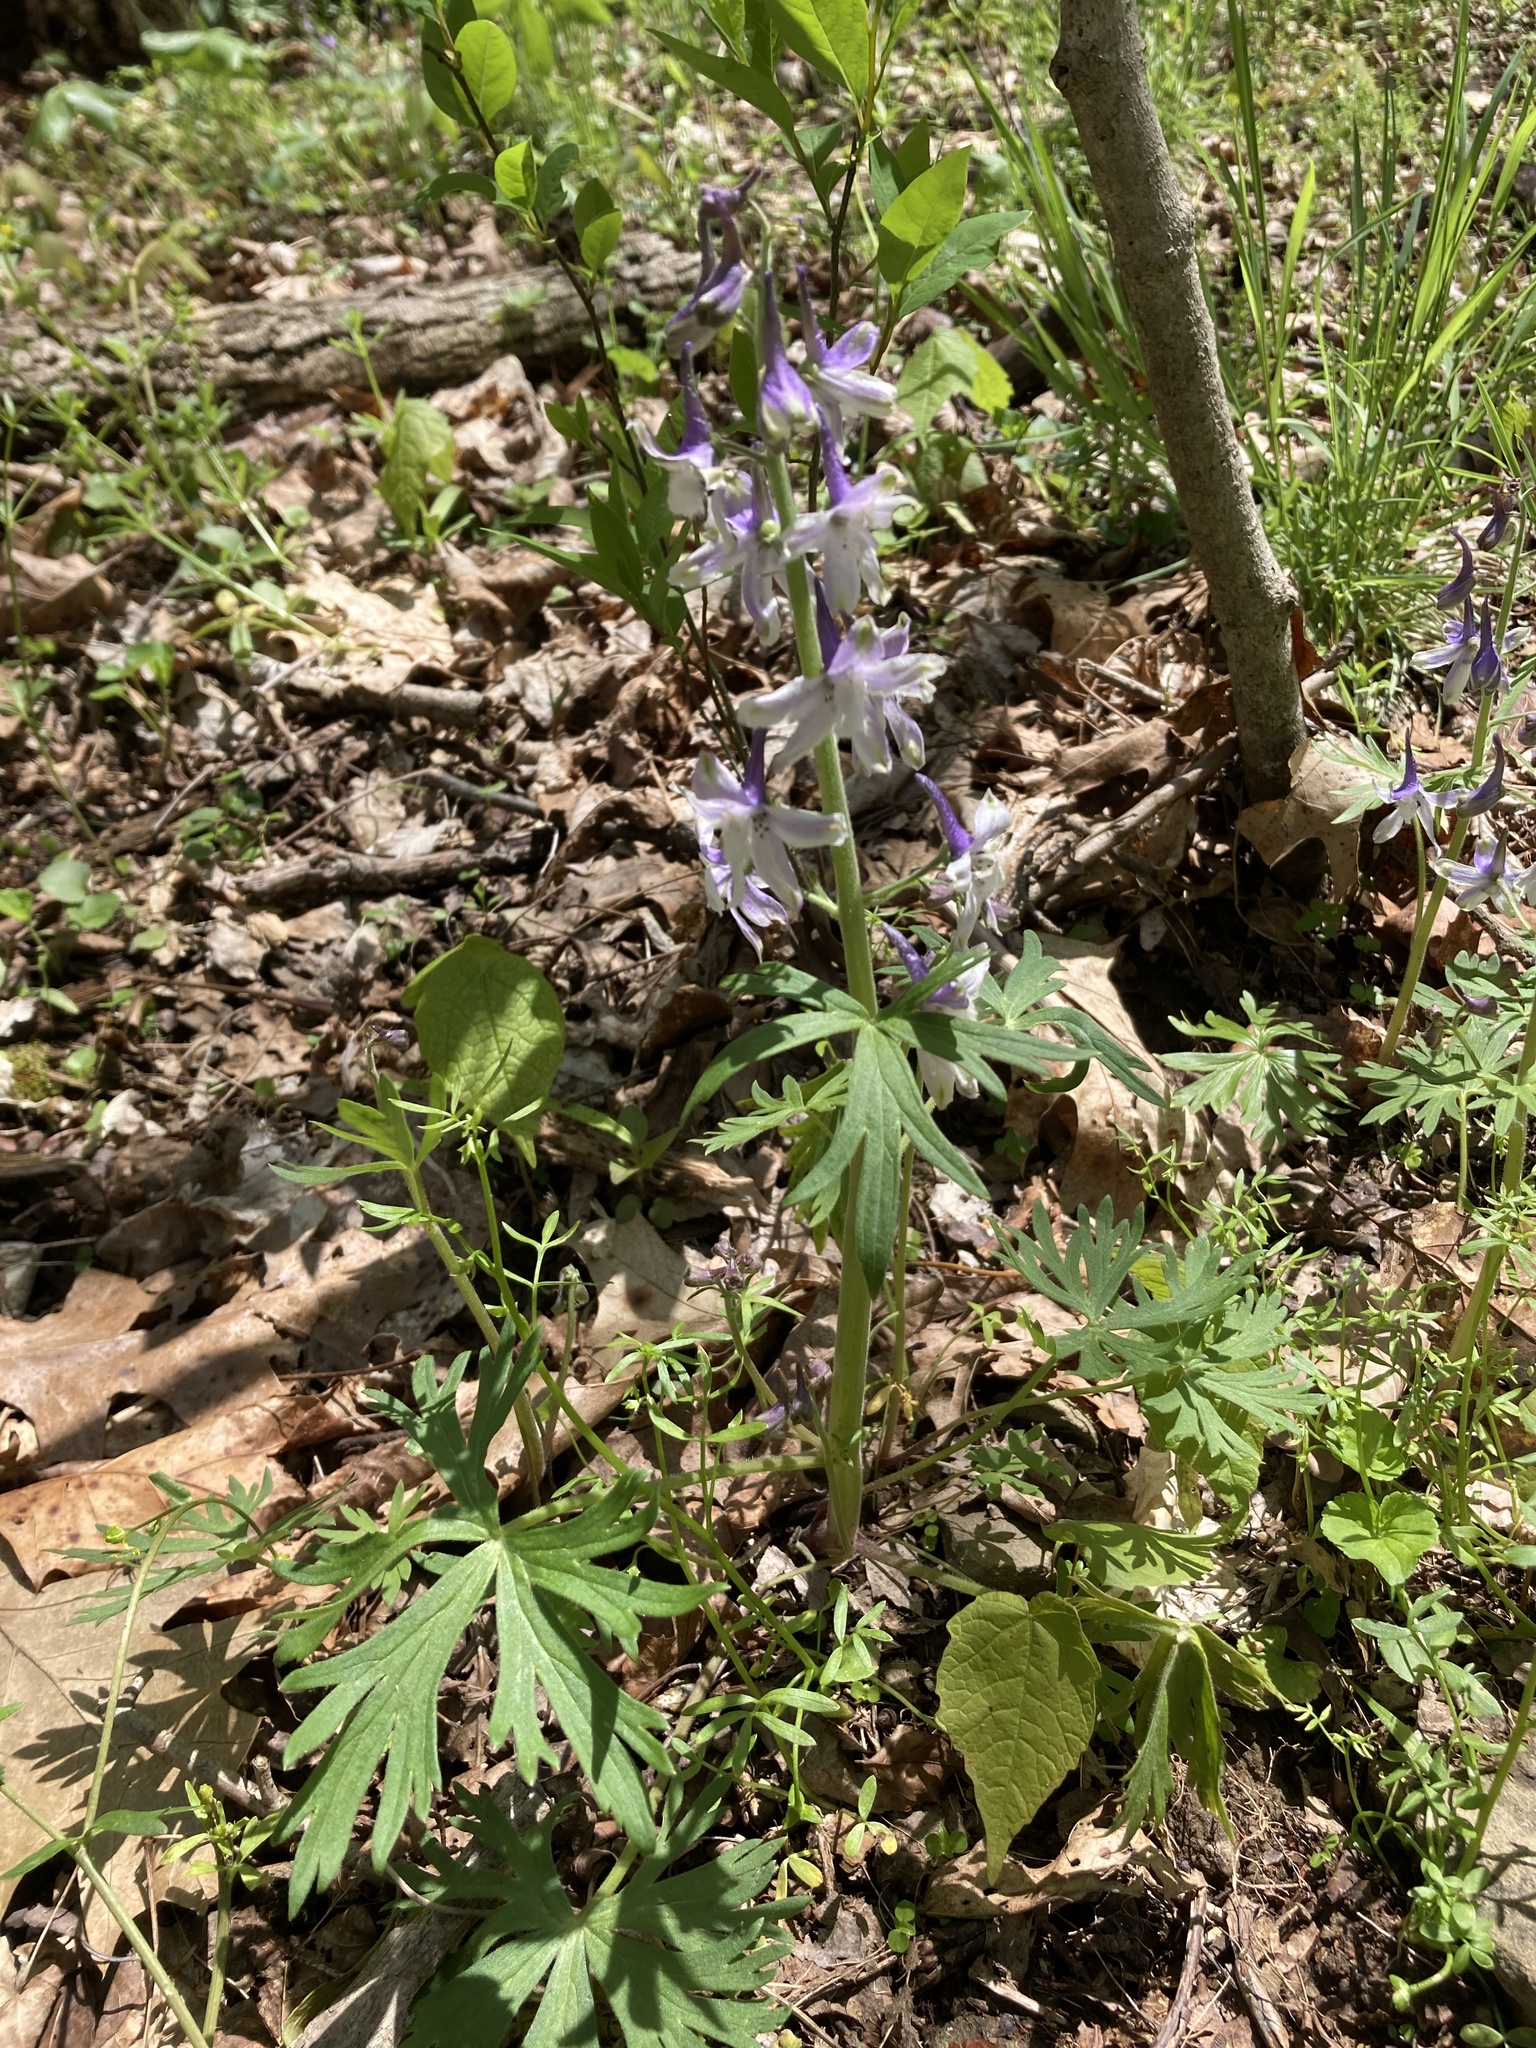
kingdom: Plantae
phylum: Tracheophyta
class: Magnoliopsida
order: Ranunculales
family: Ranunculaceae
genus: Delphinium
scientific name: Delphinium tricorne
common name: Dwarf larkspur
